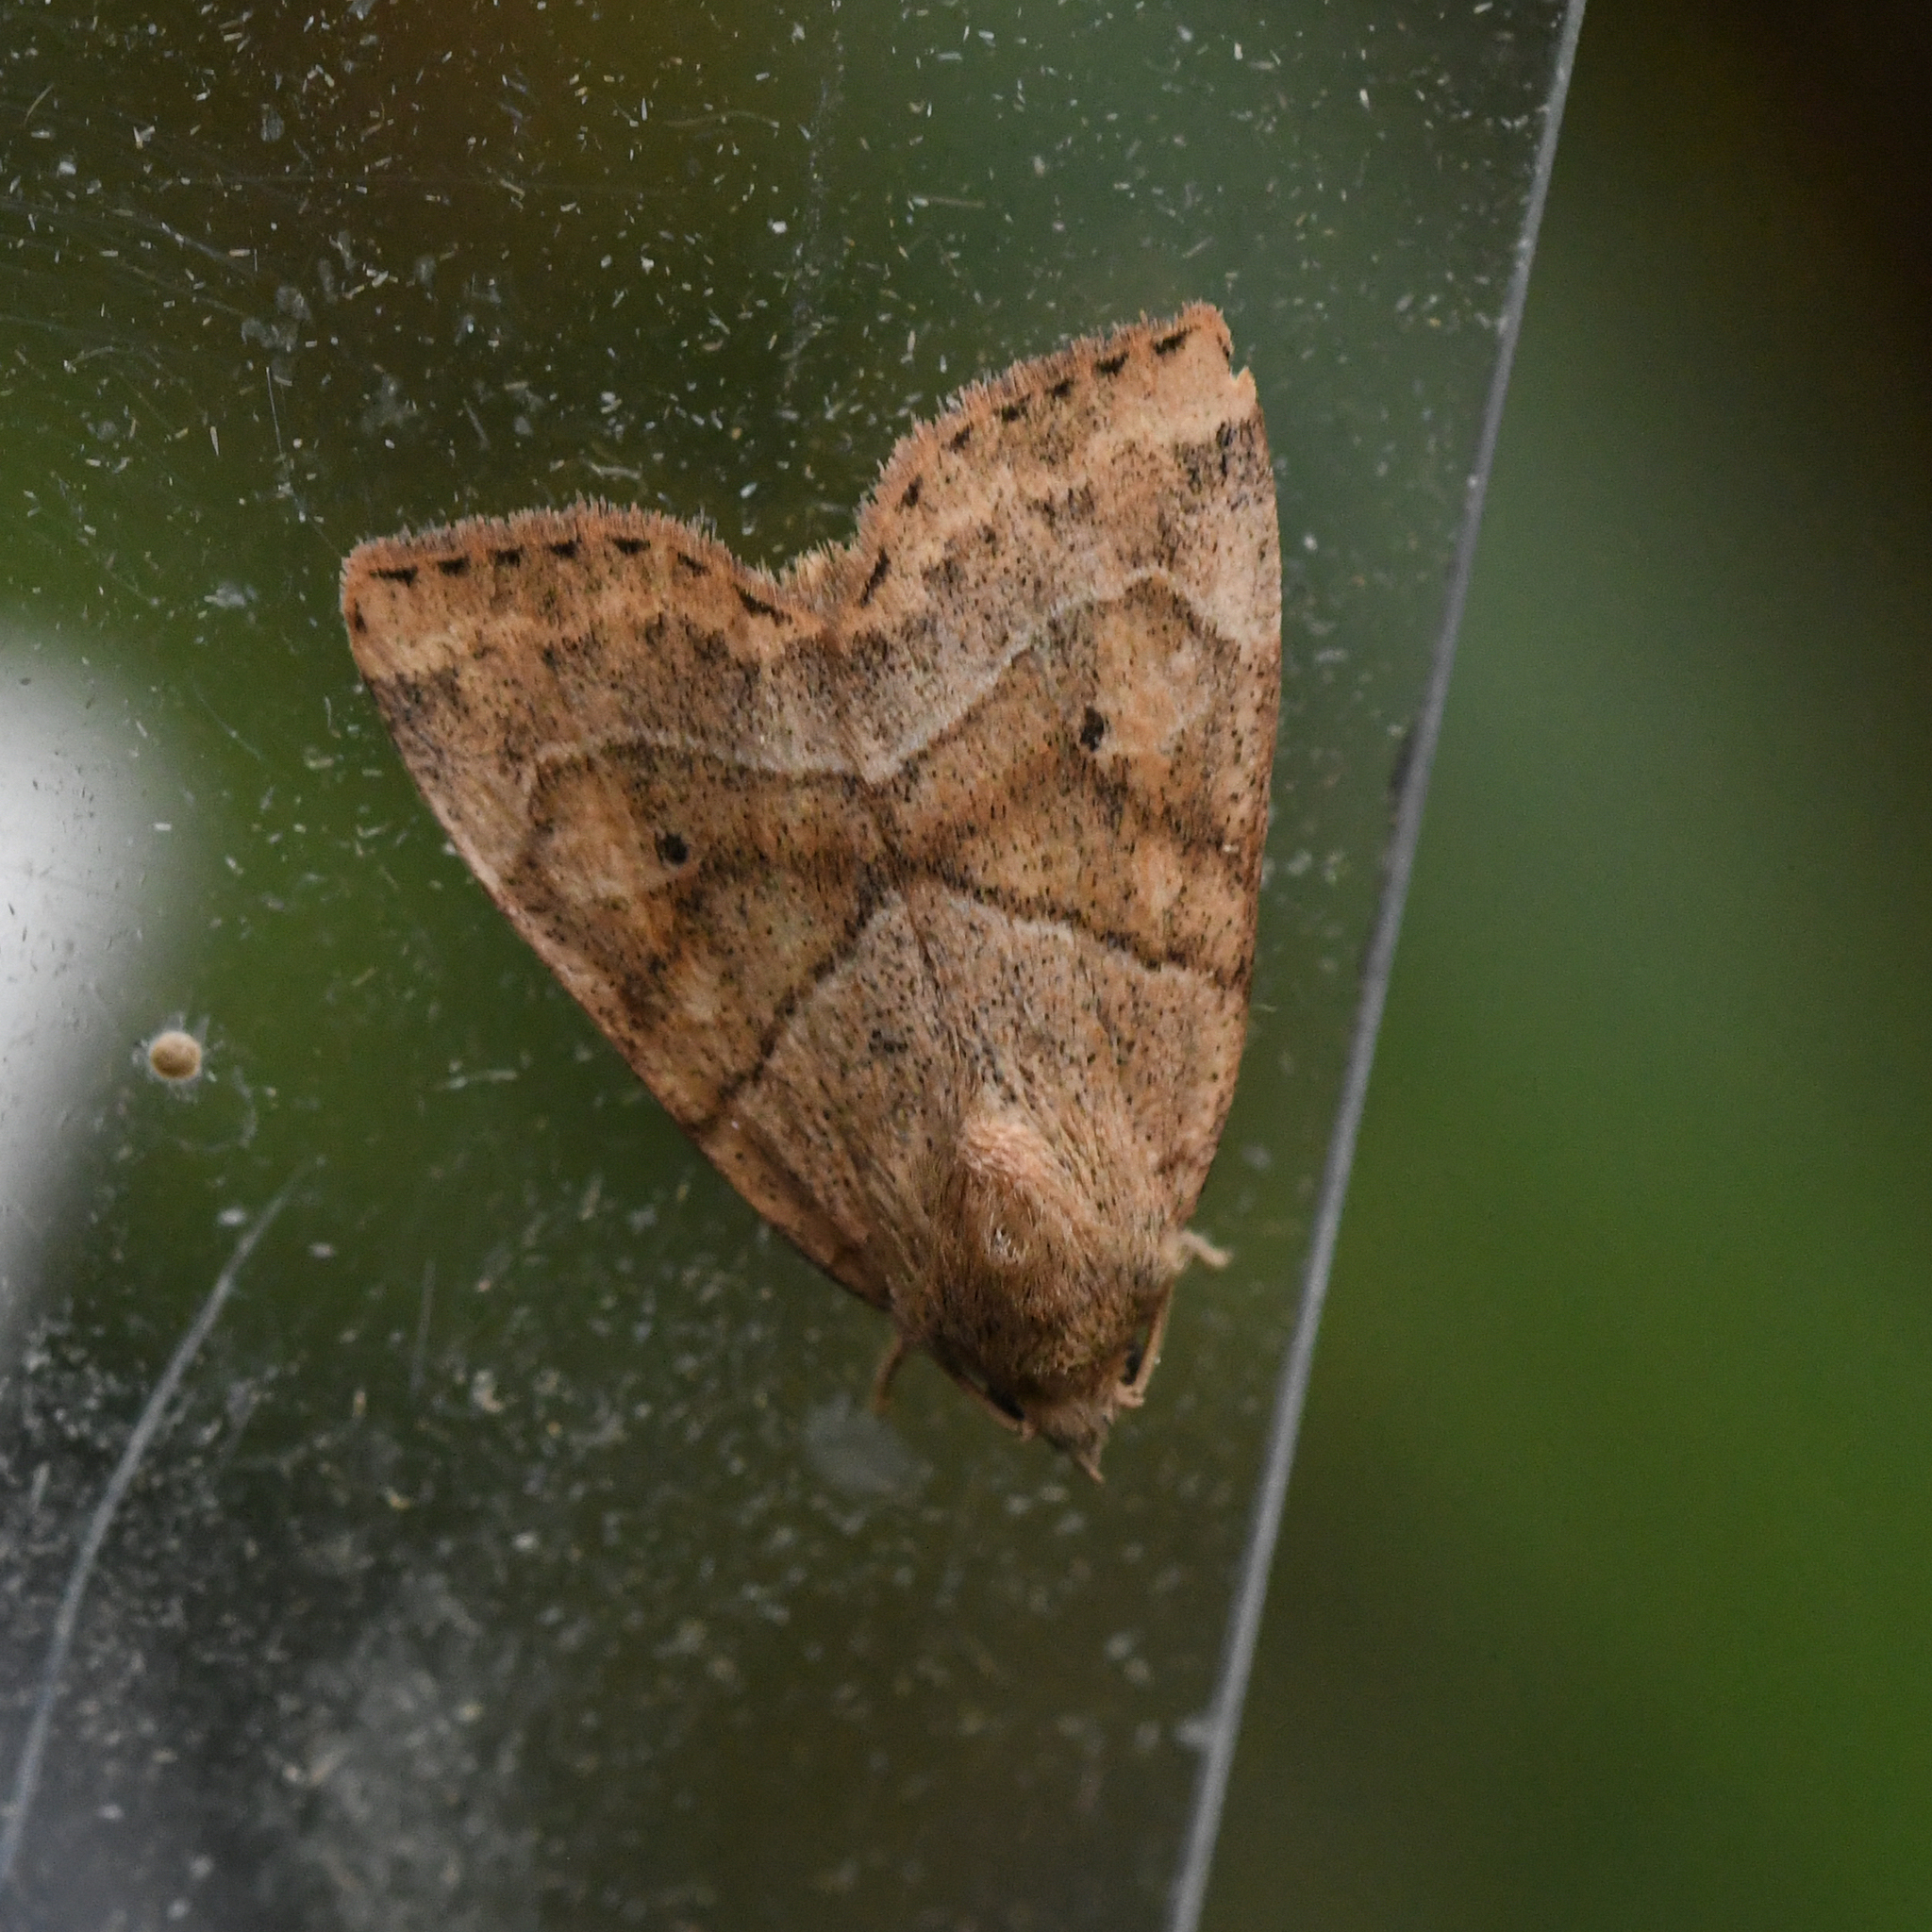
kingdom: Animalia
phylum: Arthropoda
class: Insecta
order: Lepidoptera
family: Noctuidae
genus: Cosmia
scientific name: Cosmia trapezina
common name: Dun-bar
